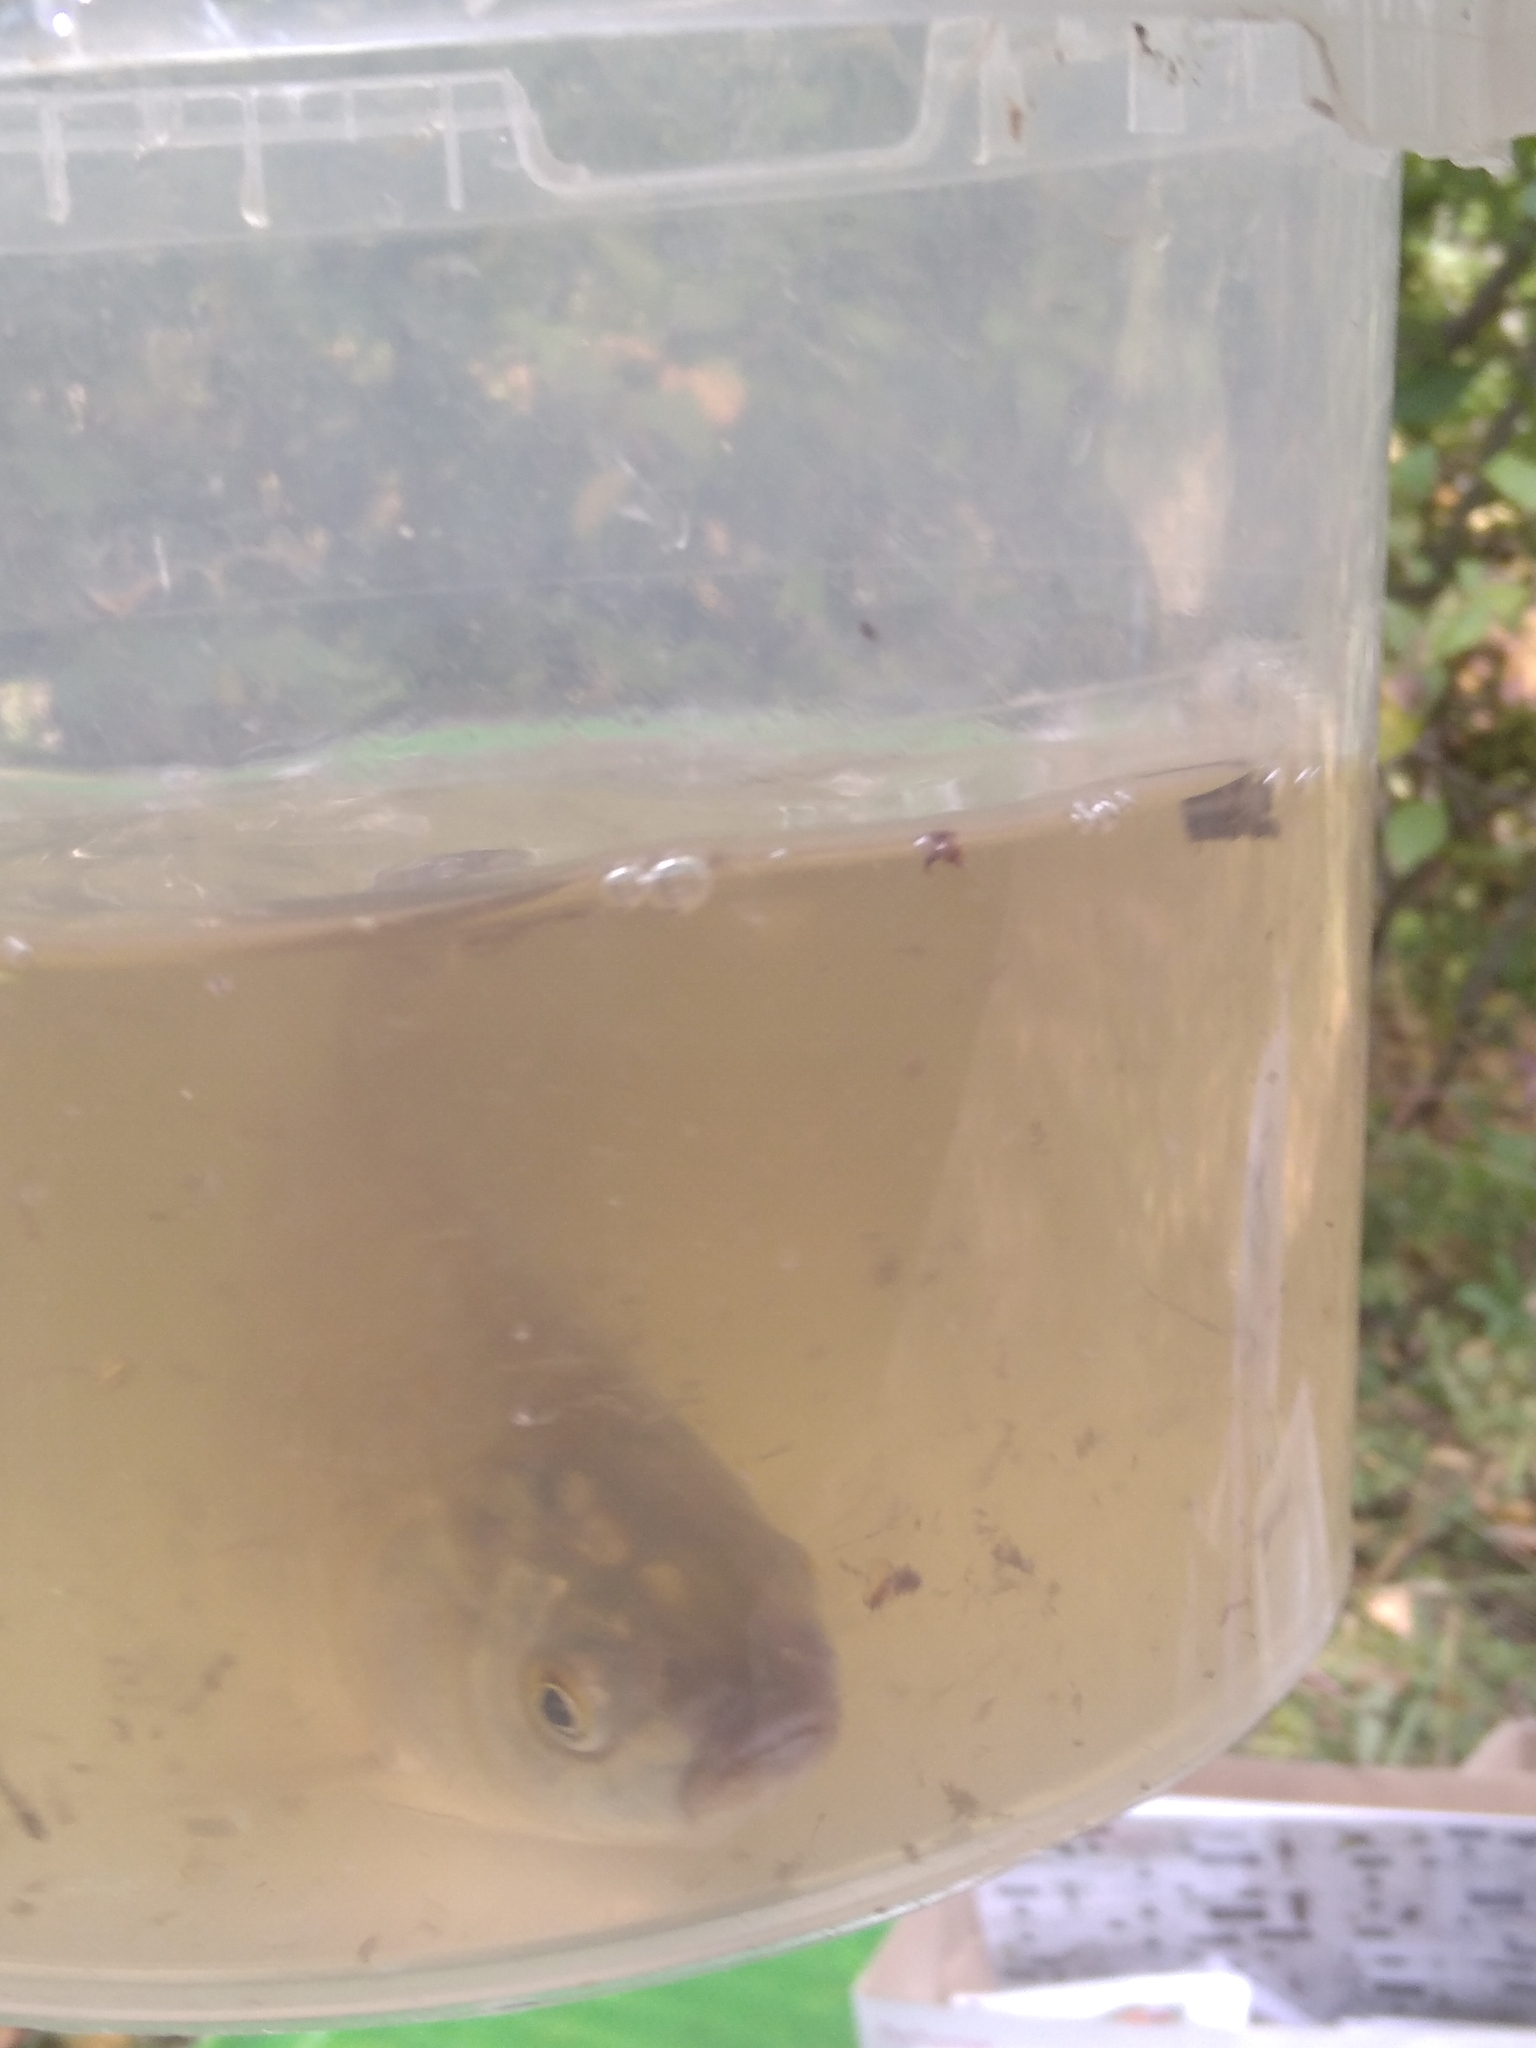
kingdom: Animalia
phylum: Chordata
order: Cypriniformes
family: Cyprinidae
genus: Carassius
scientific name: Carassius gibelio
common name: Prussian carp
